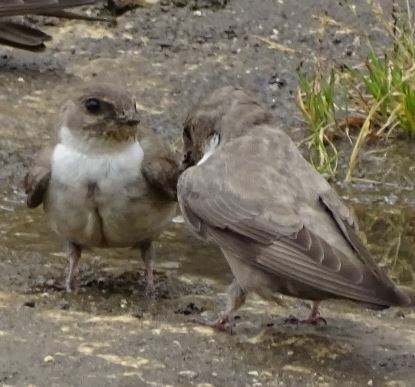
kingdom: Animalia
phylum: Chordata
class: Aves
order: Passeriformes
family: Hirundinidae
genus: Ptyonoprogne
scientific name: Ptyonoprogne rupestris
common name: Eurasian crag martin
